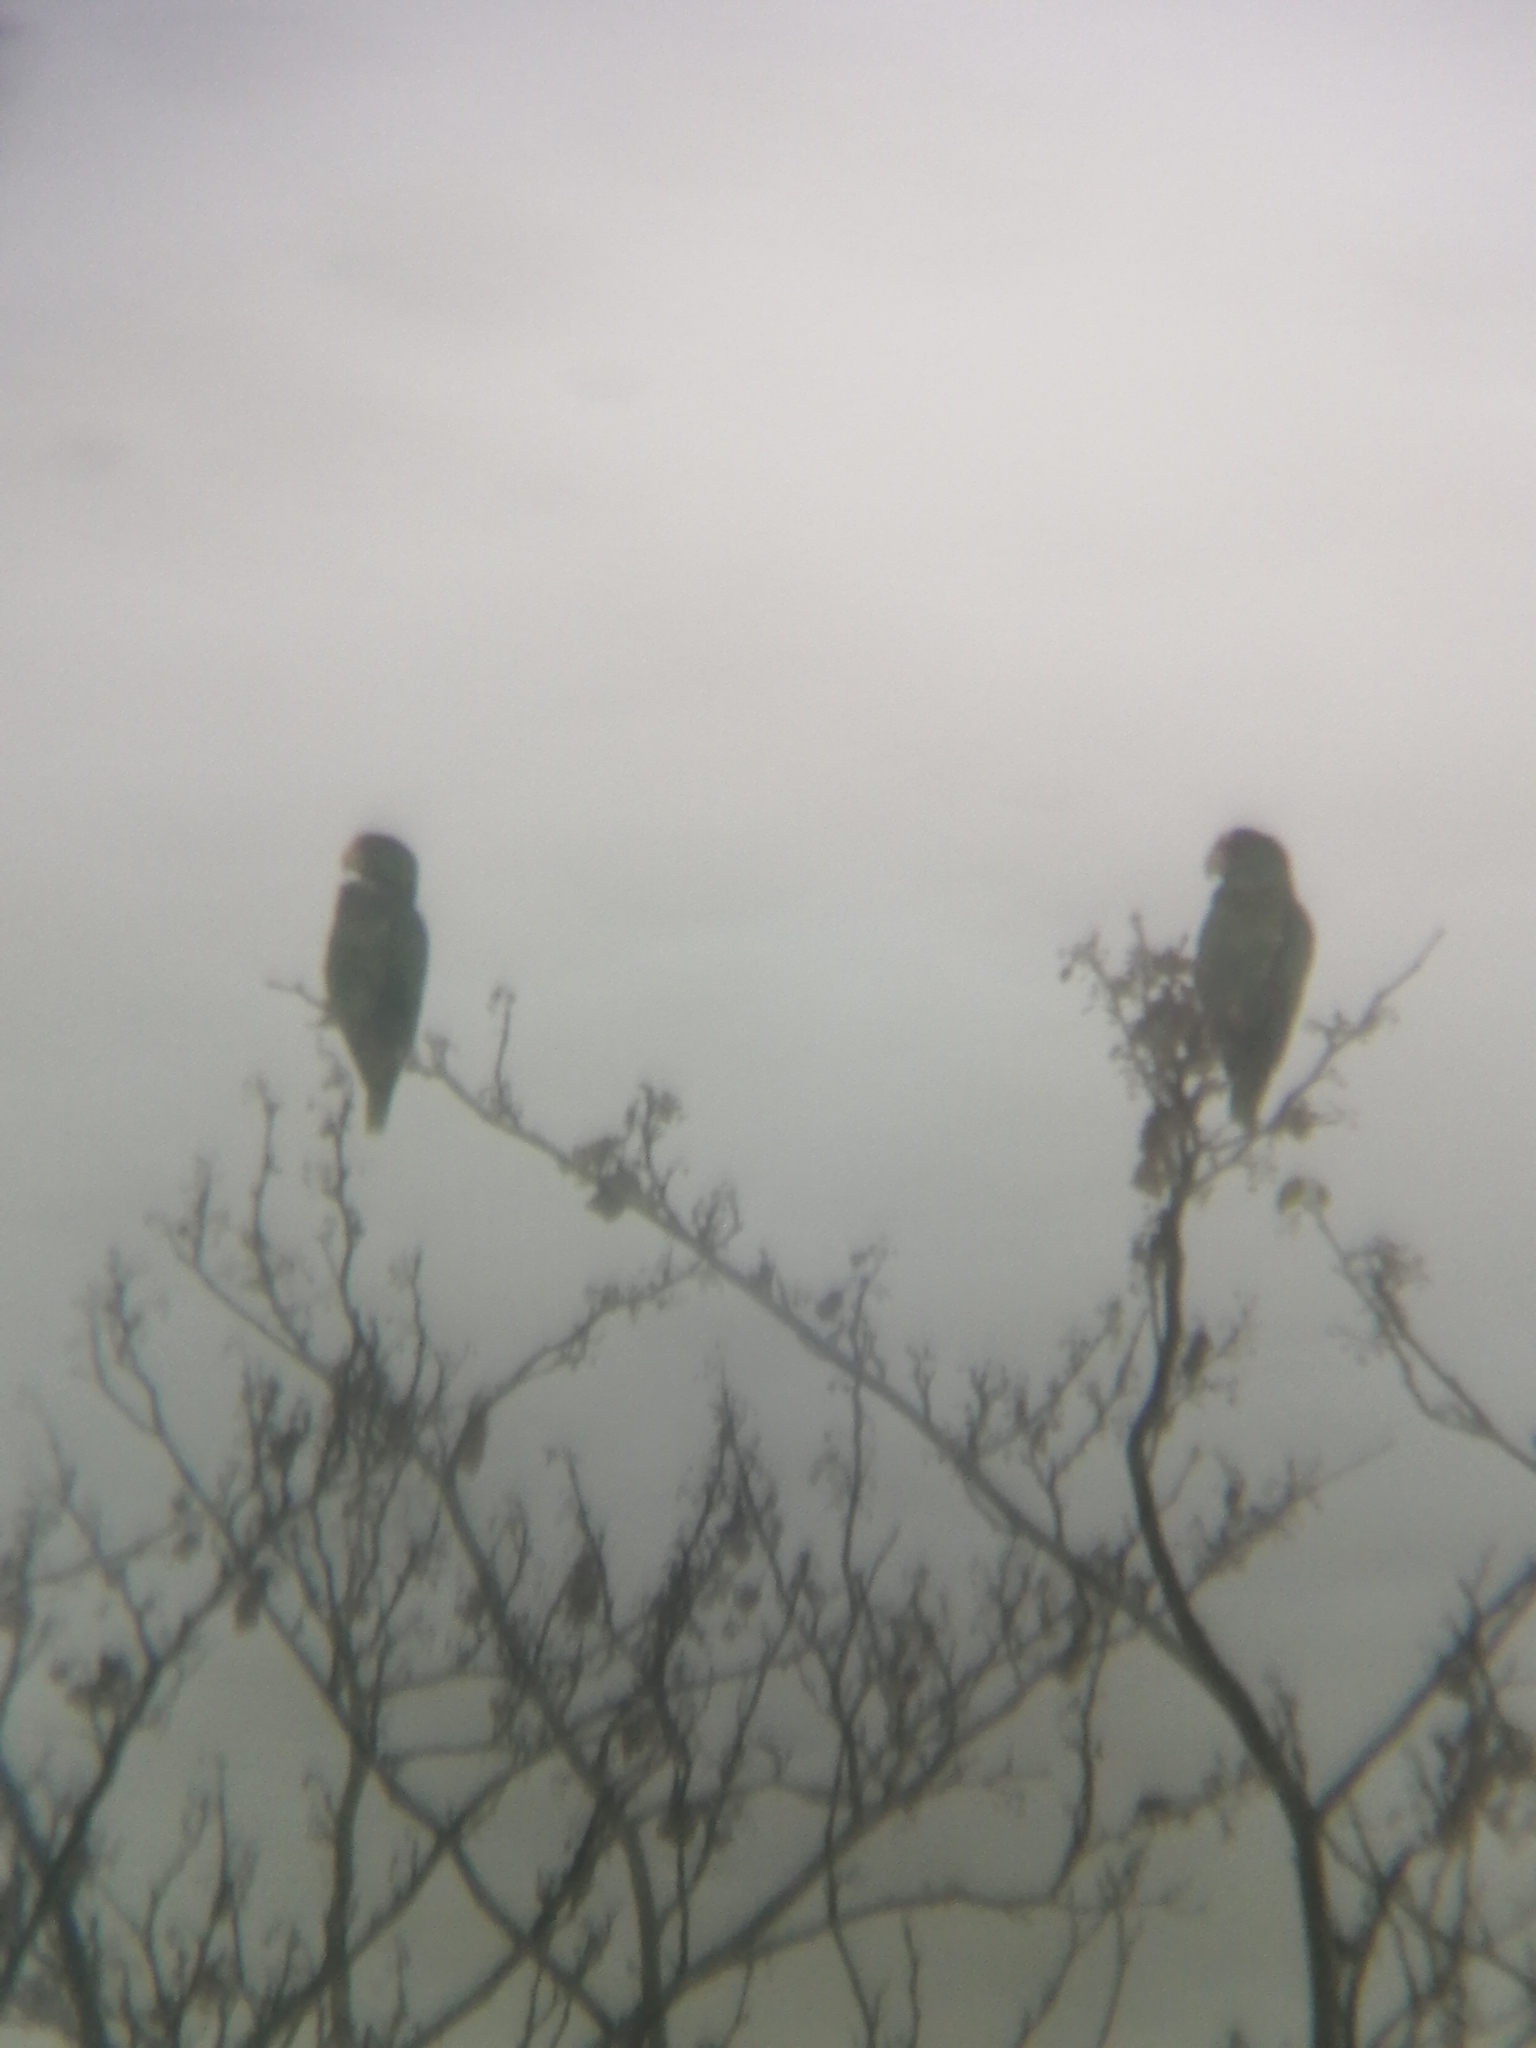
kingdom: Animalia
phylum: Chordata
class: Aves
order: Psittaciformes
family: Psittacidae
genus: Amazona
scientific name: Amazona albifrons
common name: White-fronted amazon
